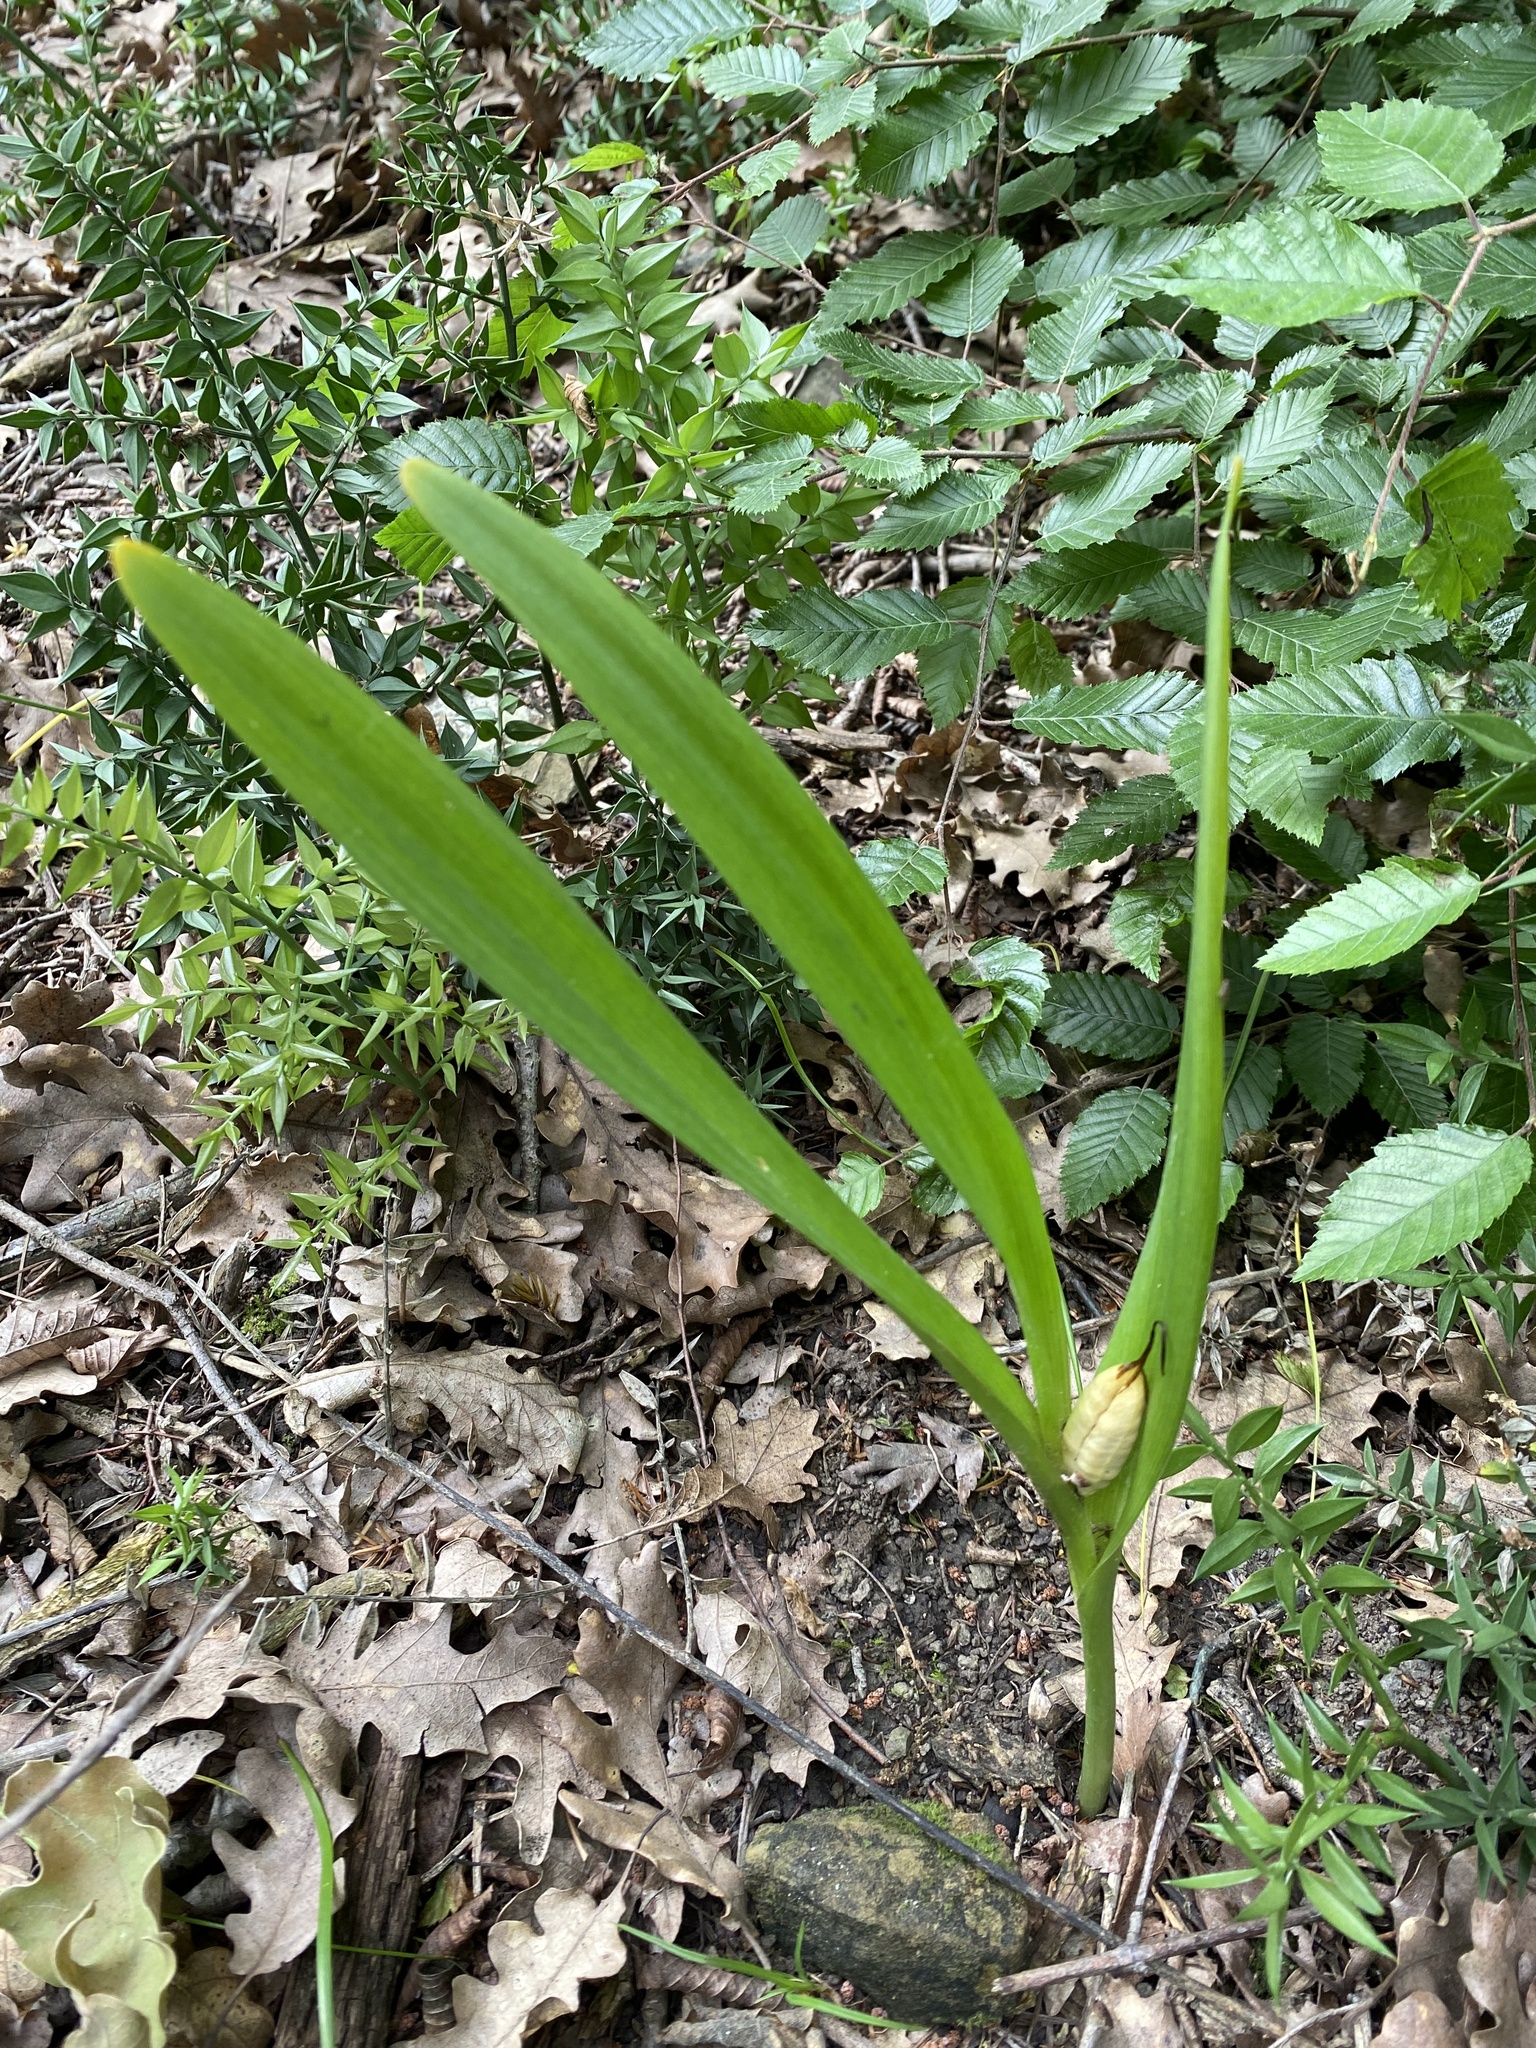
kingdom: Plantae
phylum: Tracheophyta
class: Liliopsida
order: Liliales
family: Colchicaceae
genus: Colchicum
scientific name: Colchicum umbrosum
